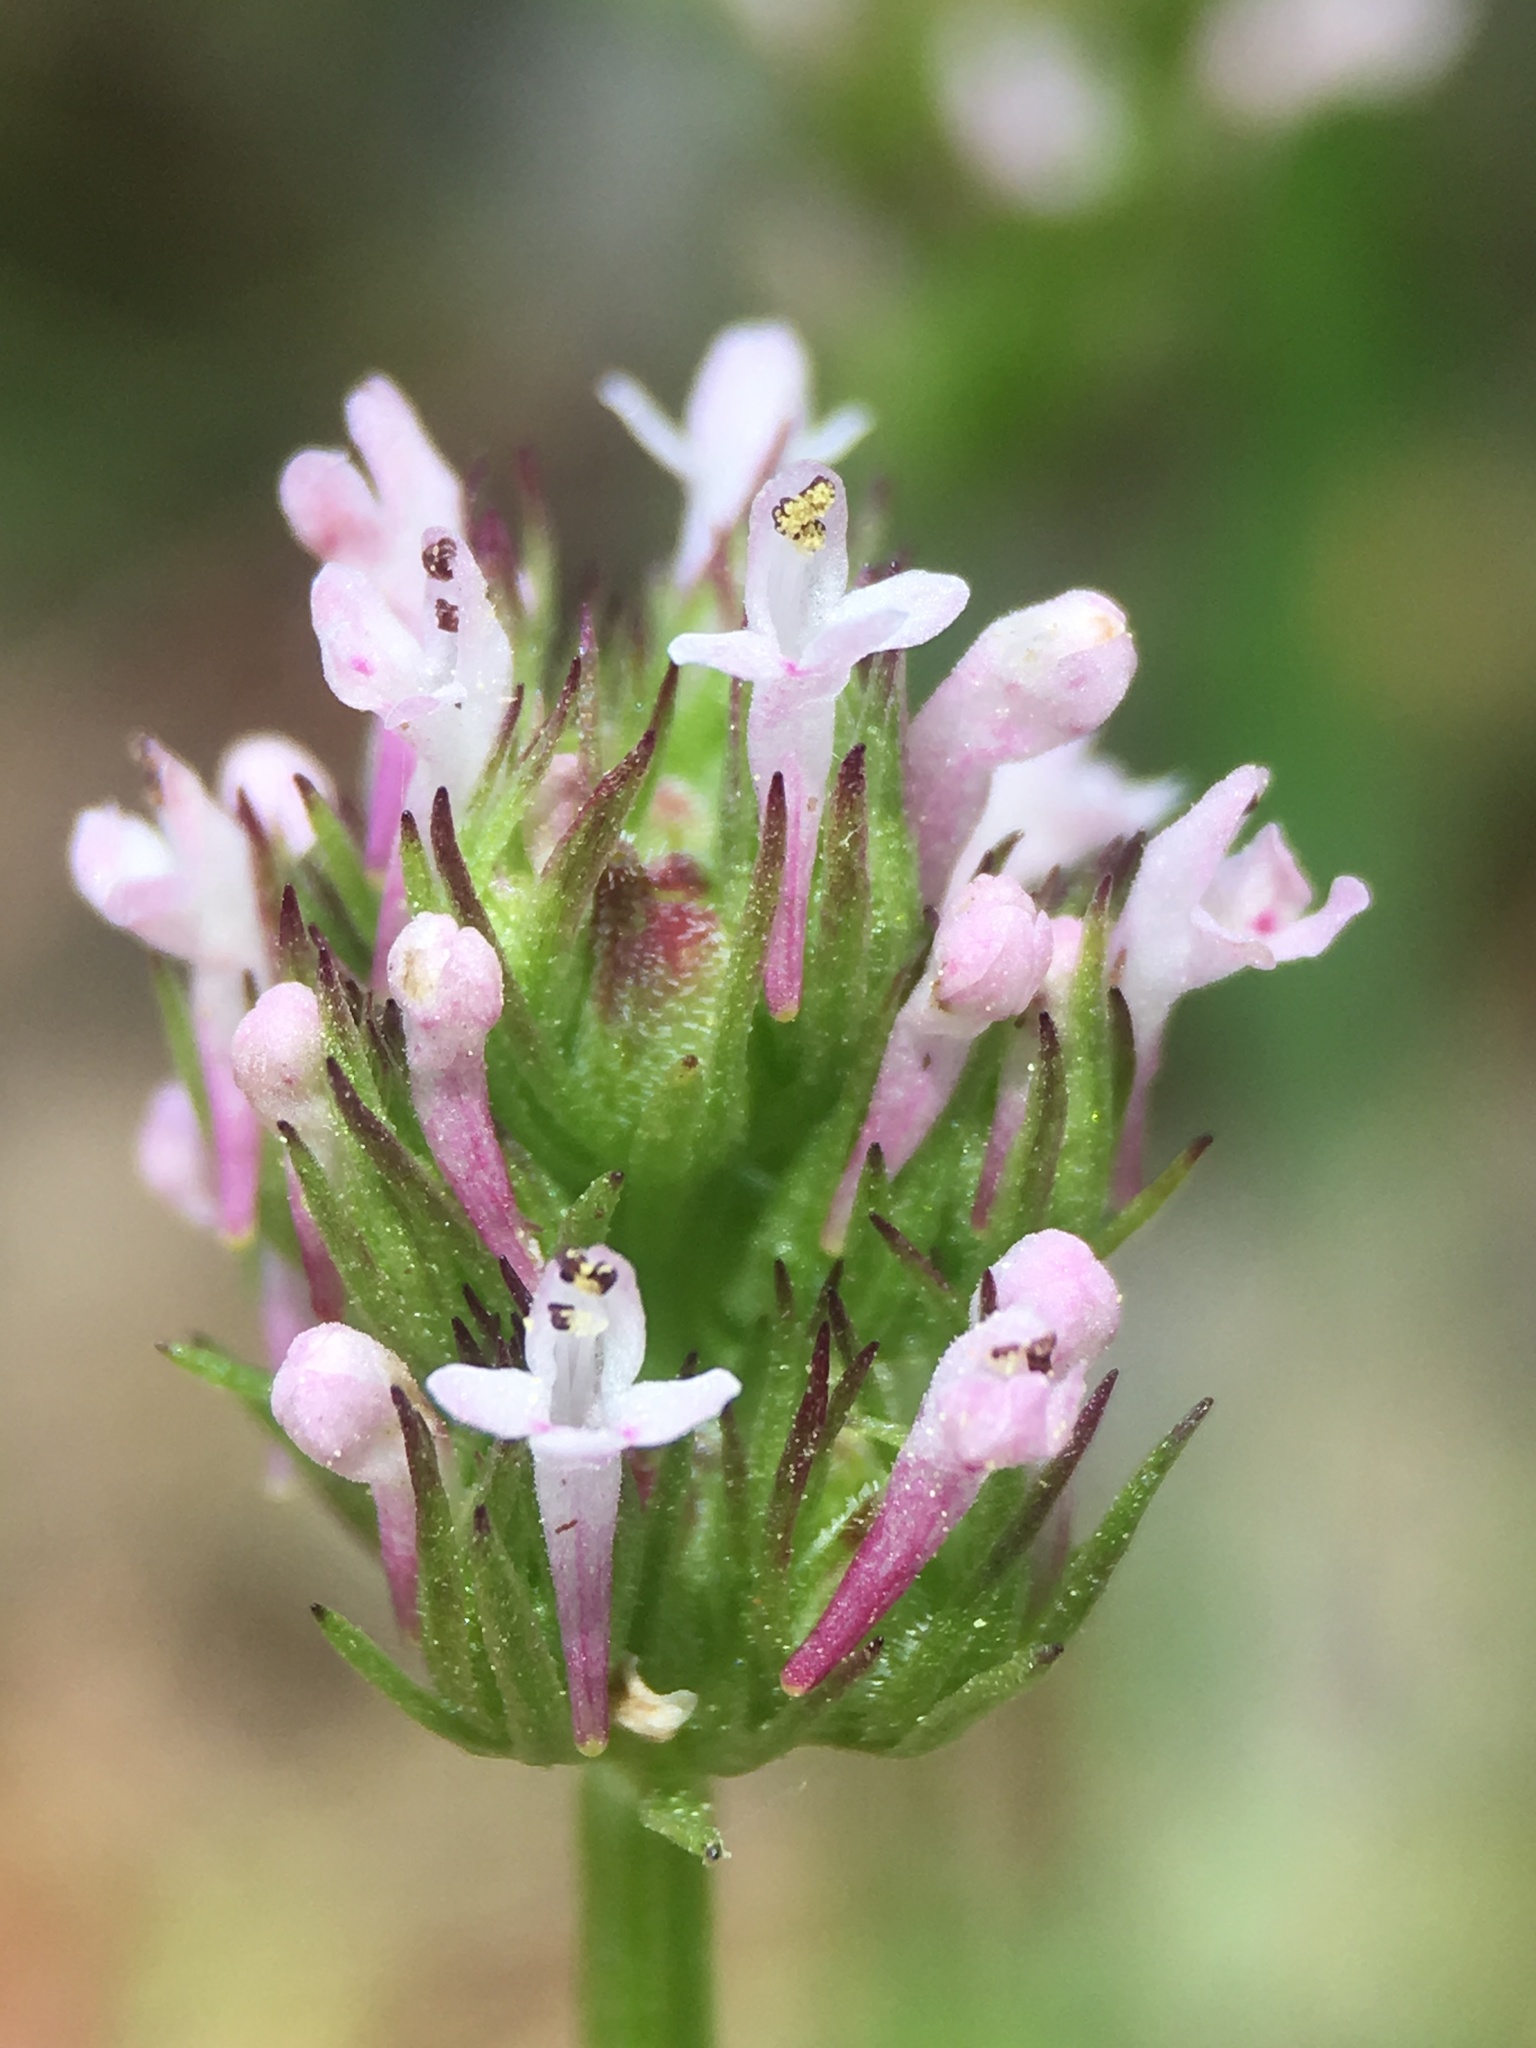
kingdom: Plantae
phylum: Tracheophyta
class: Magnoliopsida
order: Dipsacales
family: Caprifoliaceae
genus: Plectritis
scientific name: Plectritis ciliosa
